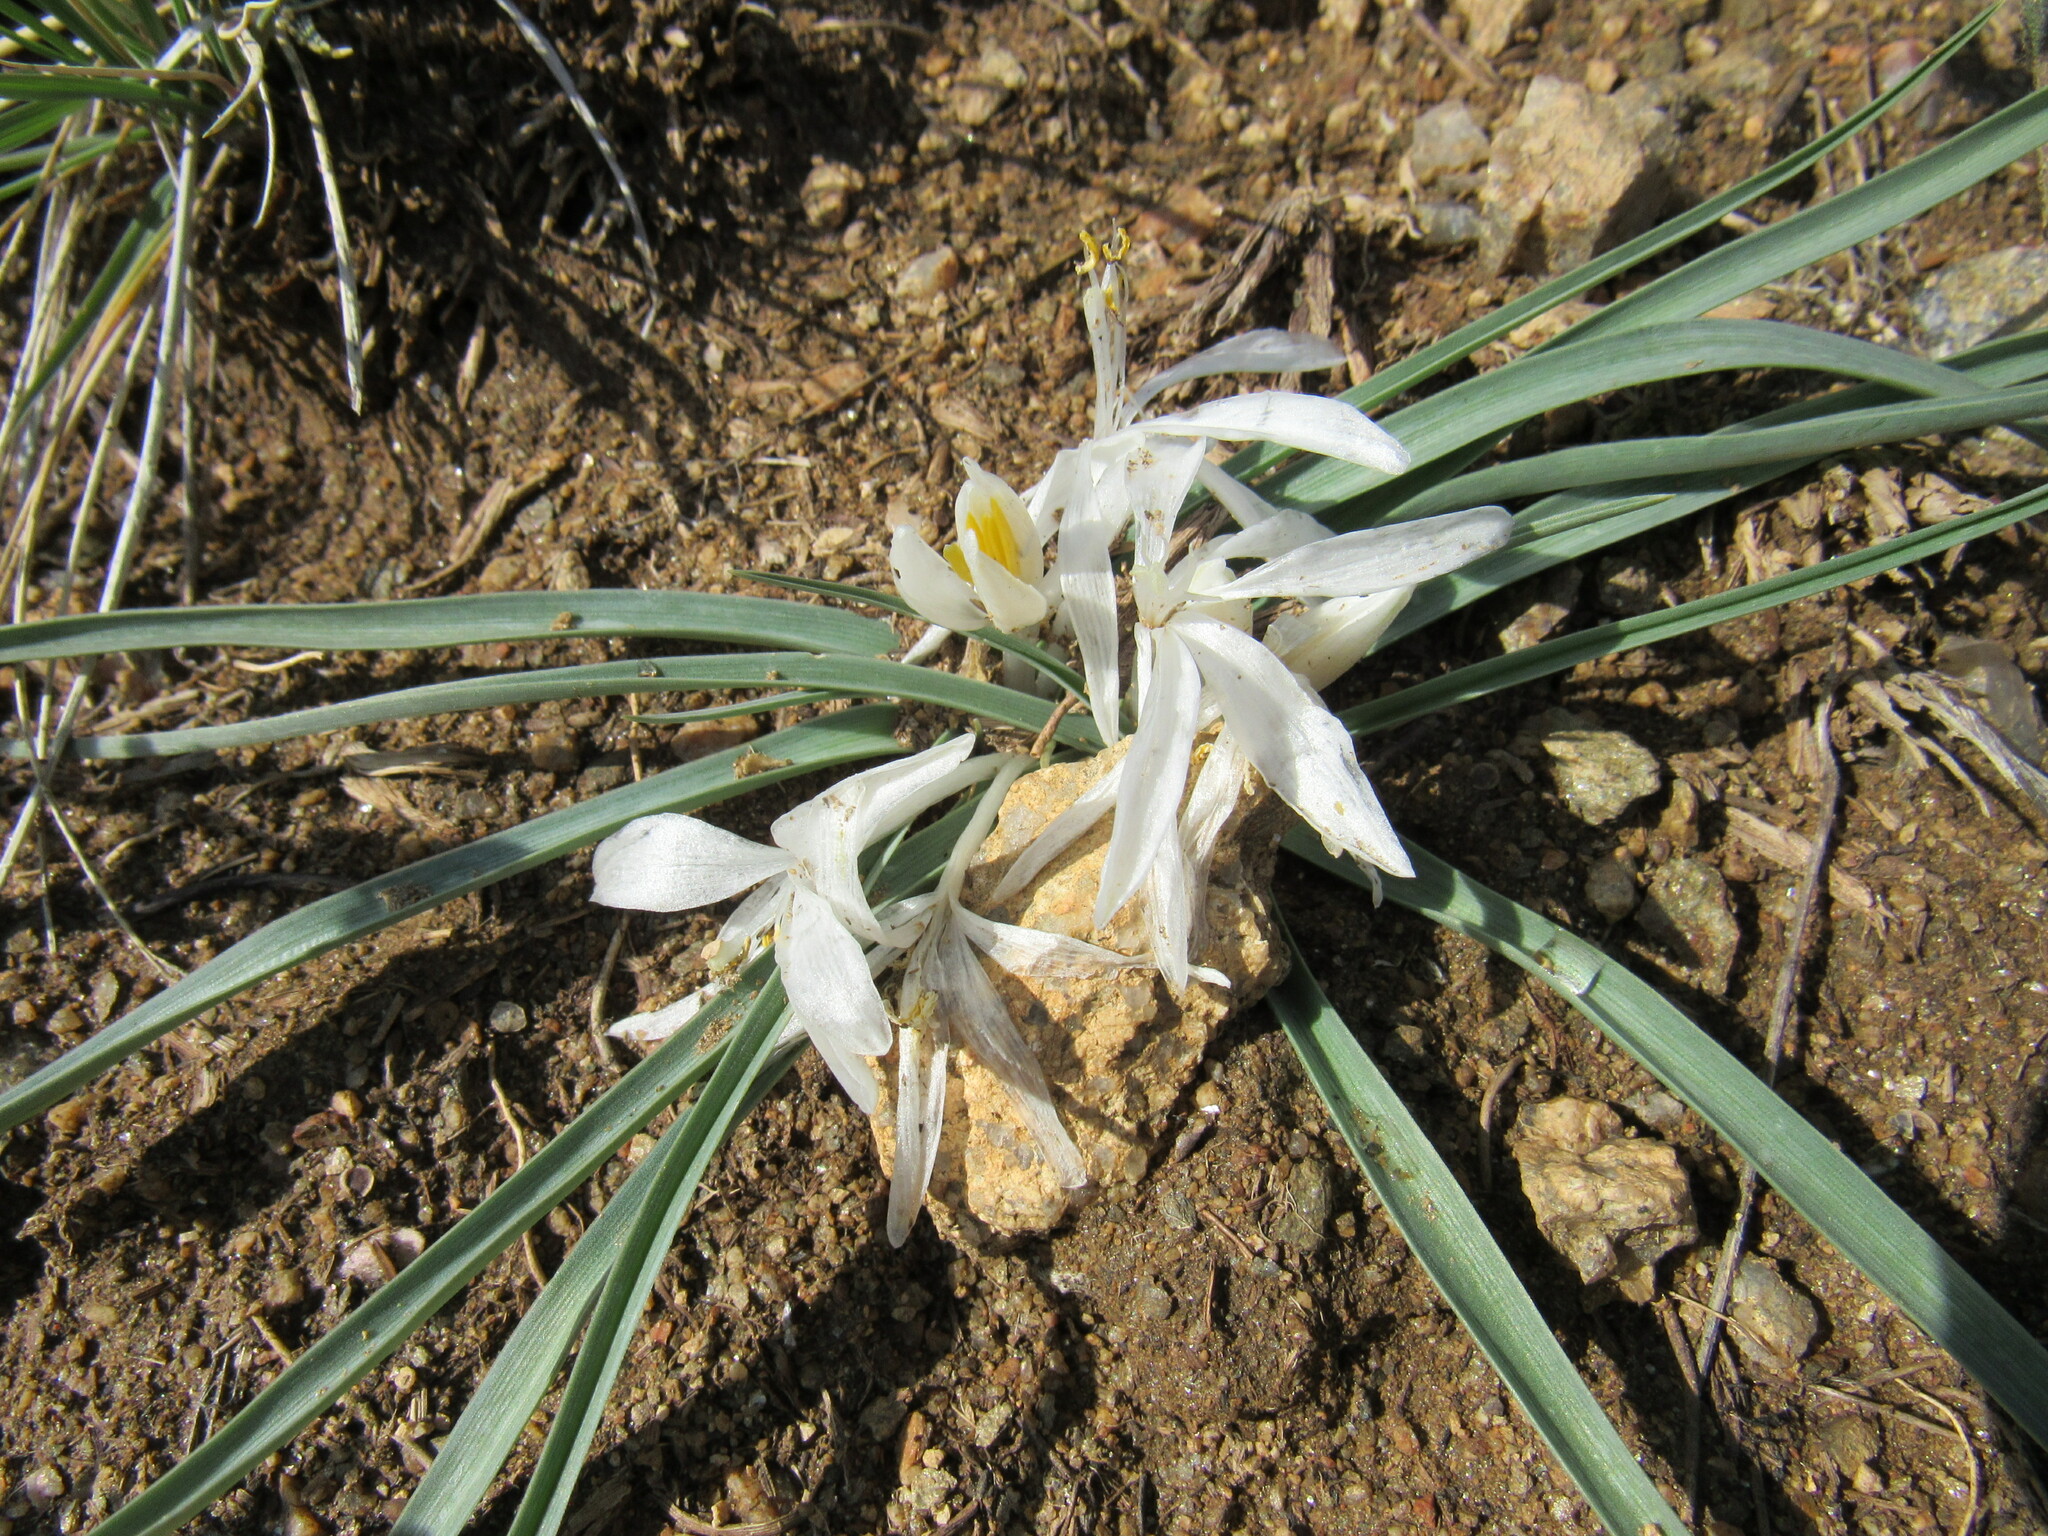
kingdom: Plantae
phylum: Tracheophyta
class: Liliopsida
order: Asparagales
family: Asparagaceae
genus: Leucocrinum
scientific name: Leucocrinum montanum
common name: Mountain-lily
